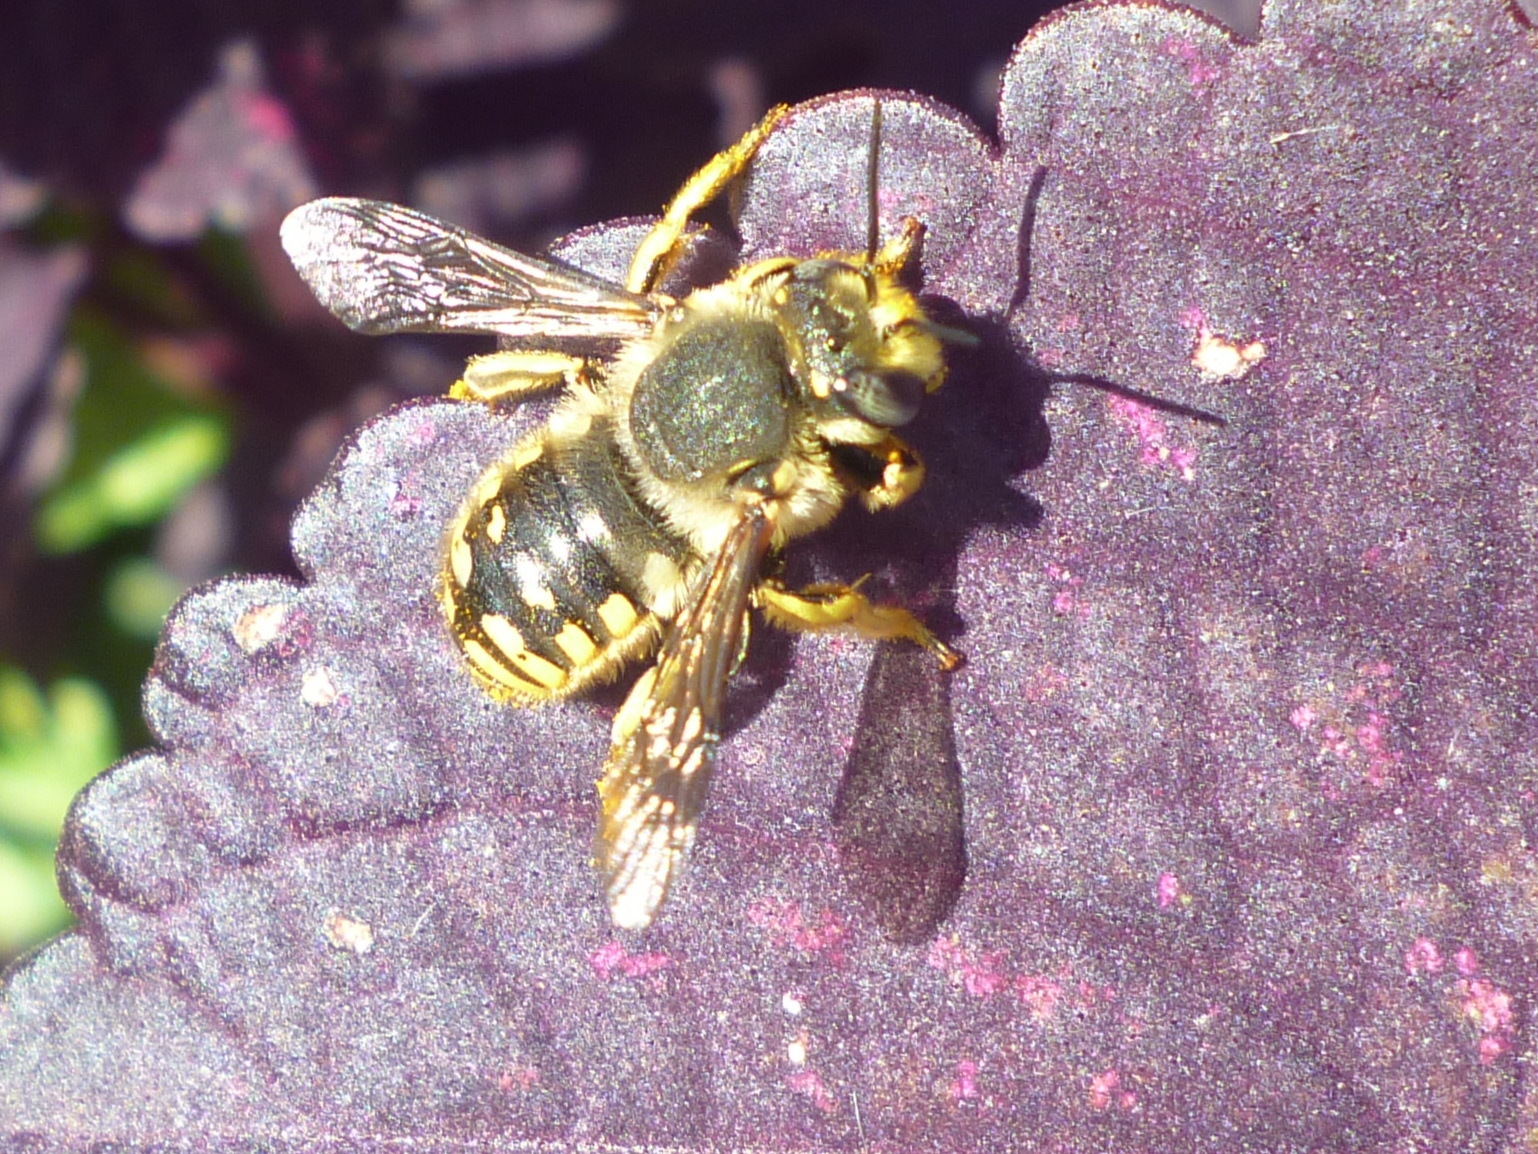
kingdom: Animalia
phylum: Arthropoda
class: Insecta
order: Hymenoptera
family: Megachilidae
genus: Anthidium
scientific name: Anthidium manicatum
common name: Wool carder bee
